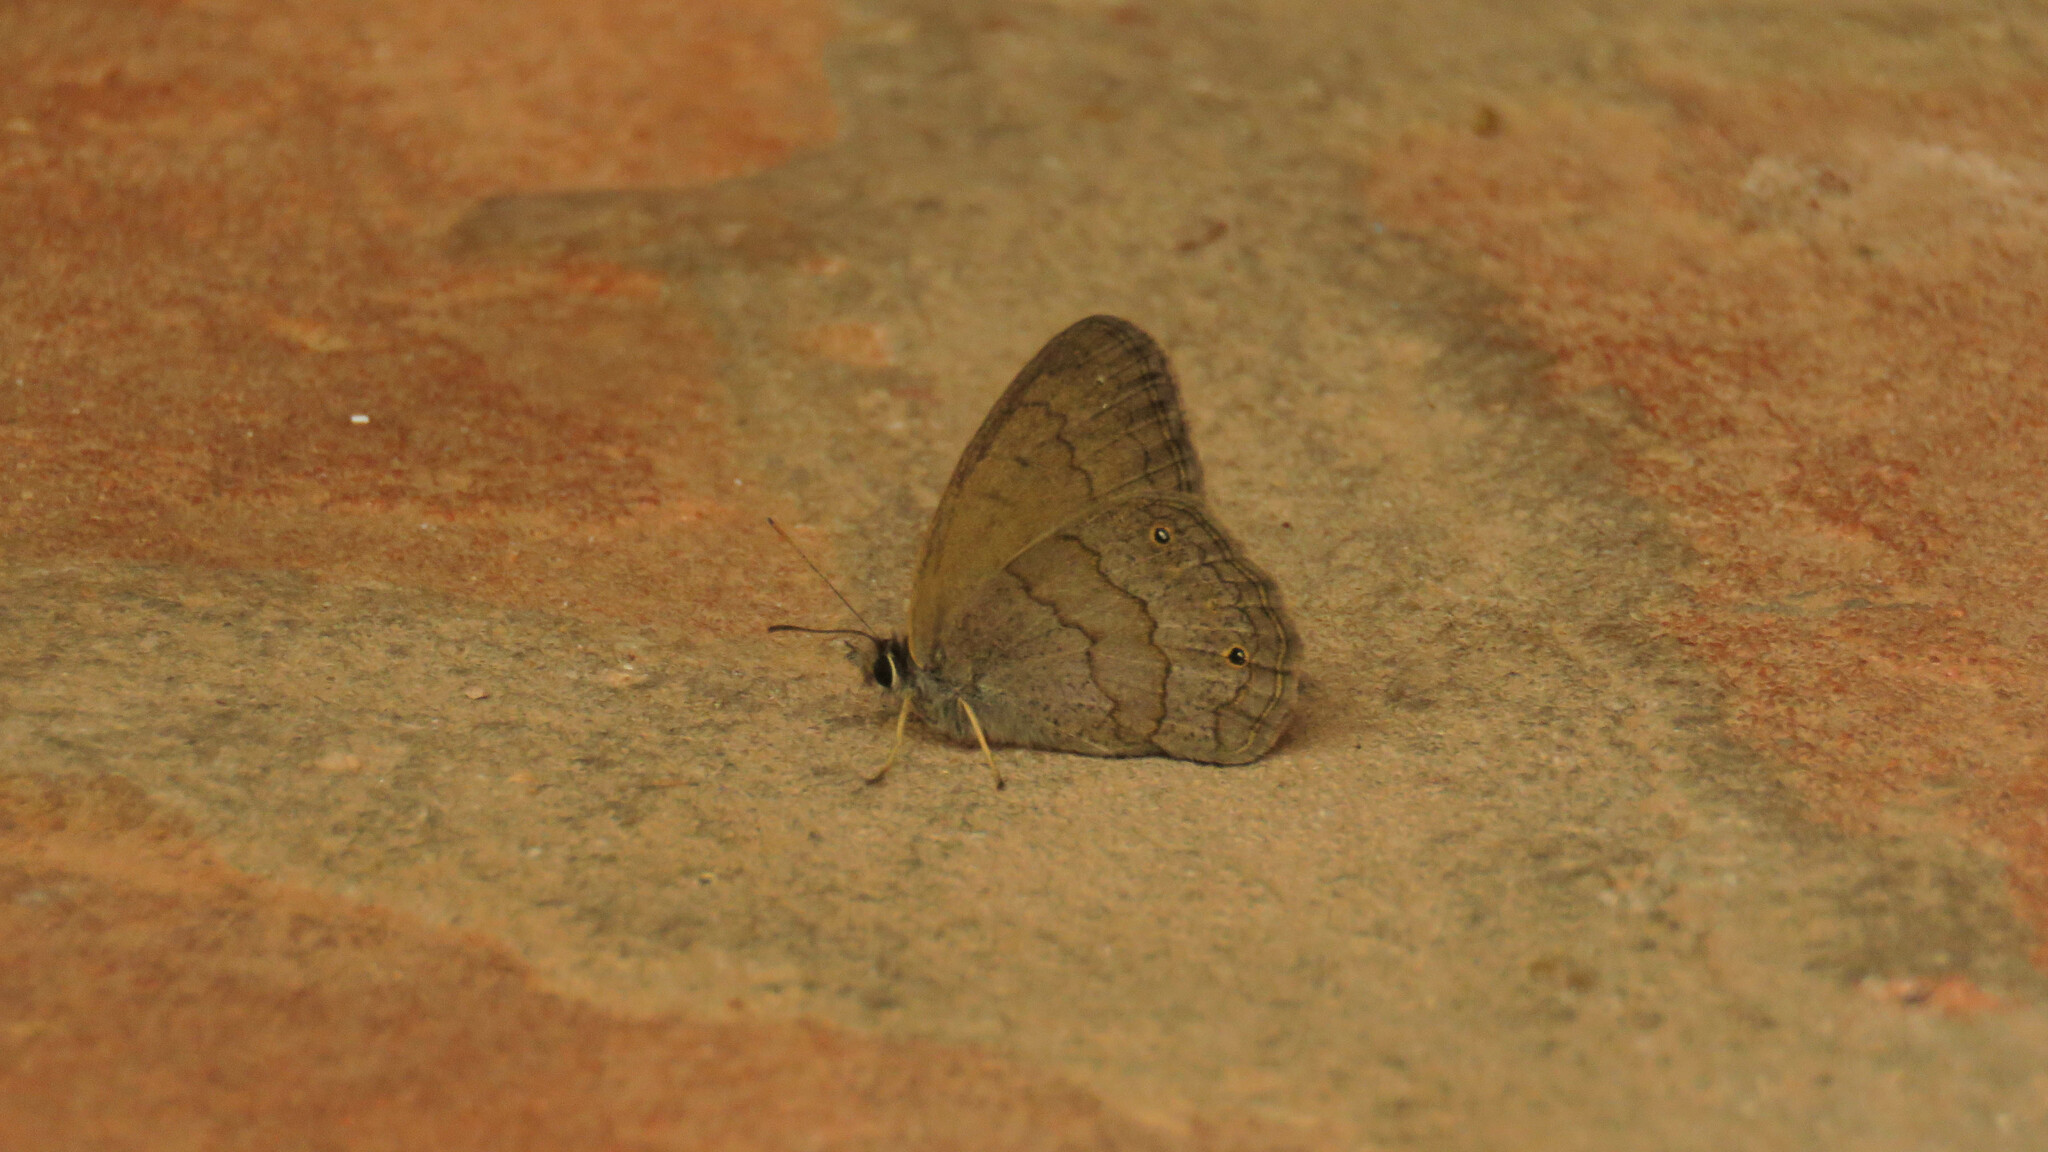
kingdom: Animalia
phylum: Arthropoda
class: Insecta
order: Lepidoptera
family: Nymphalidae
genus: Euptychia
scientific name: Euptychia Cissia eous
